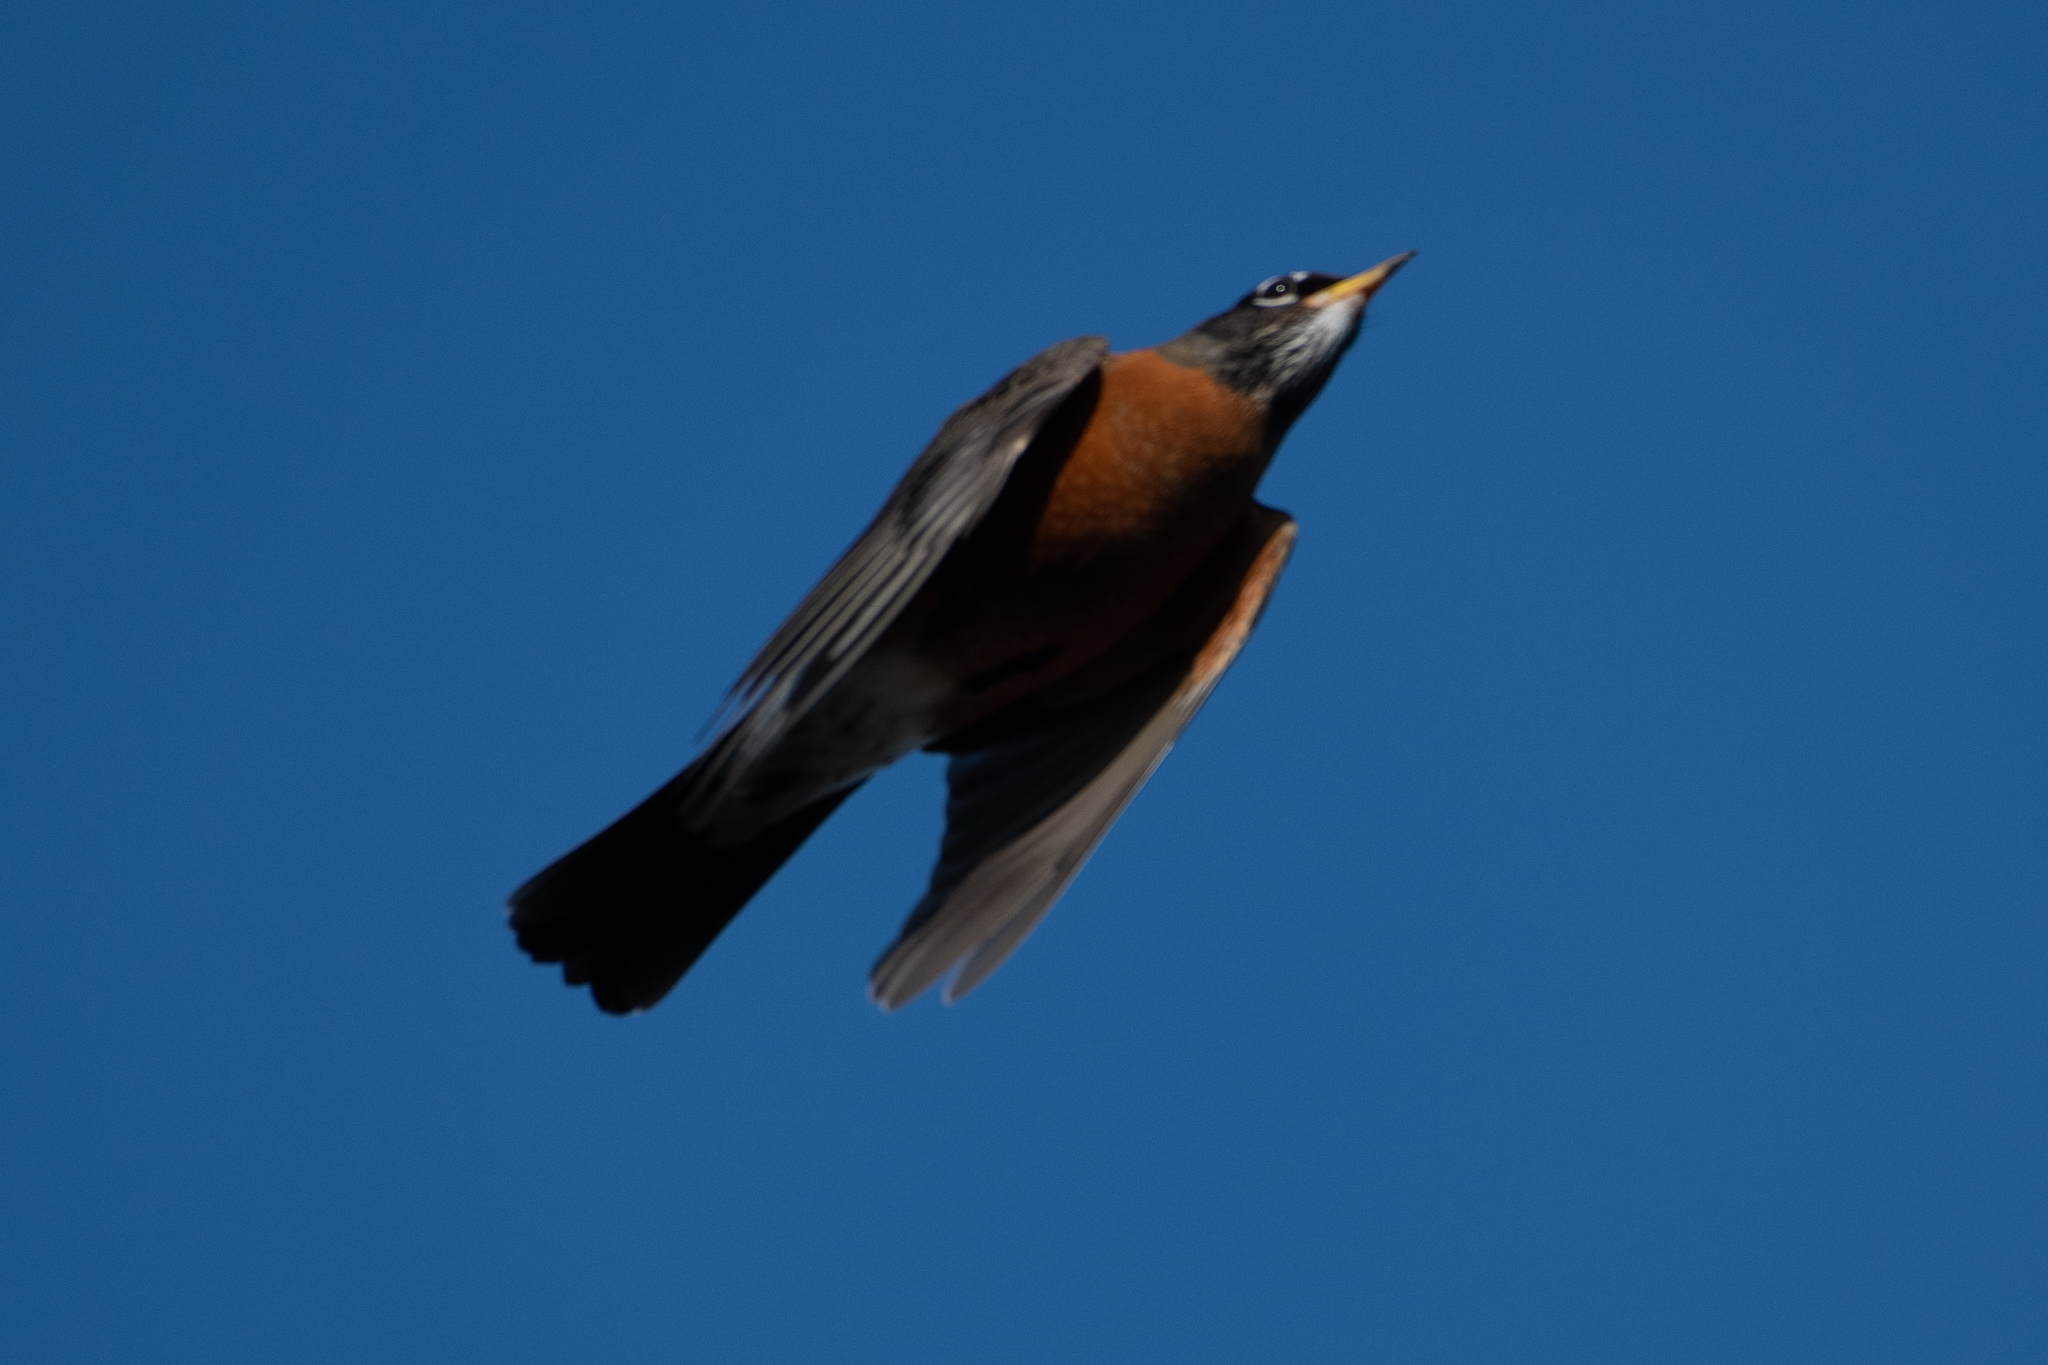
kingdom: Animalia
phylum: Chordata
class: Aves
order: Passeriformes
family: Turdidae
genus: Turdus
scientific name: Turdus migratorius
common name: American robin
